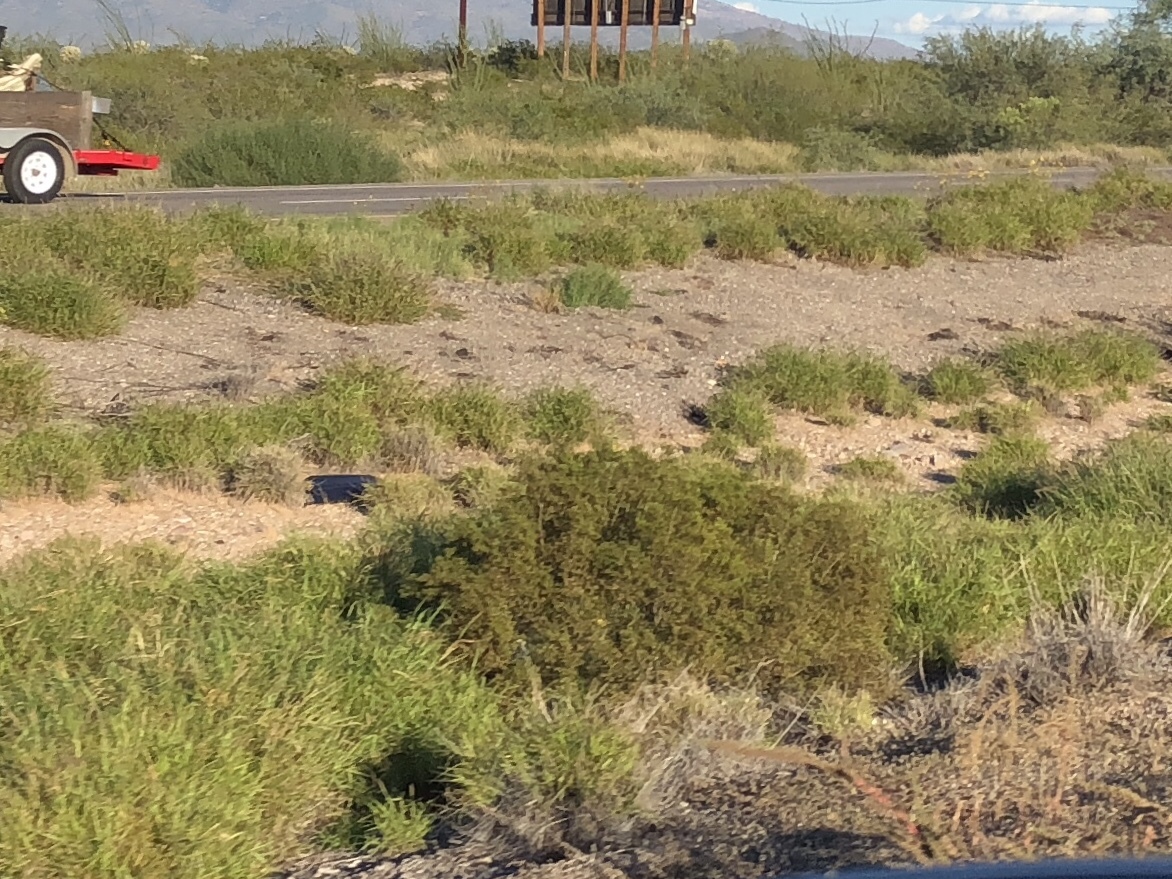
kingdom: Plantae
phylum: Tracheophyta
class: Magnoliopsida
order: Zygophyllales
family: Zygophyllaceae
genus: Larrea
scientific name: Larrea tridentata
